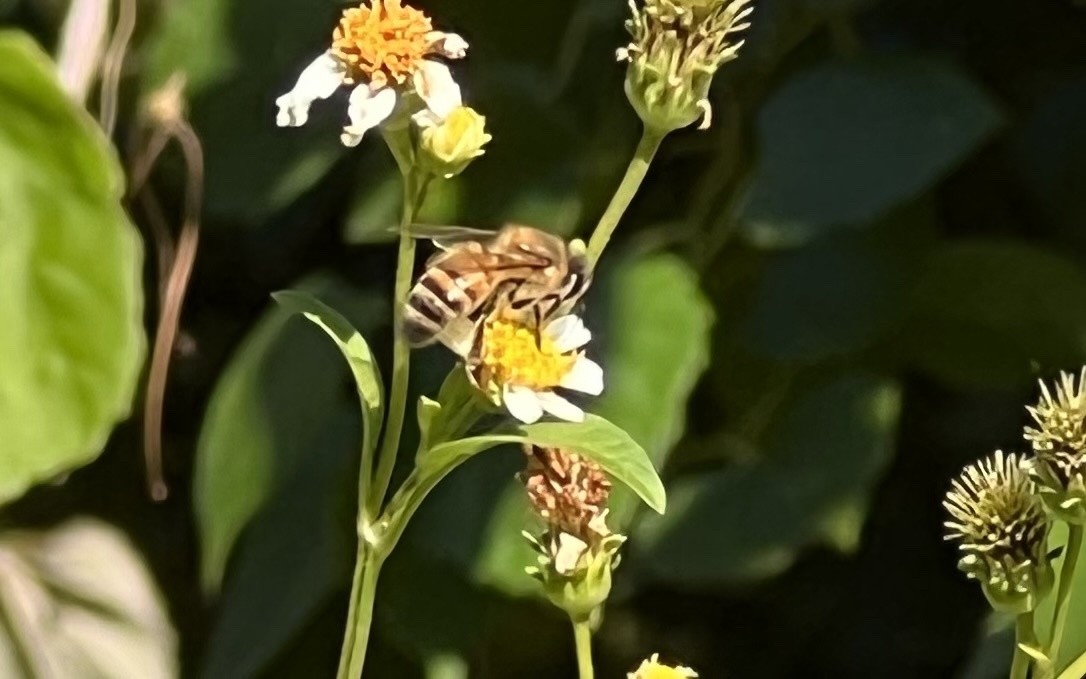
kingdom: Animalia
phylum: Arthropoda
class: Insecta
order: Hymenoptera
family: Apidae
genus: Apis
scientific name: Apis mellifera
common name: Honey bee
